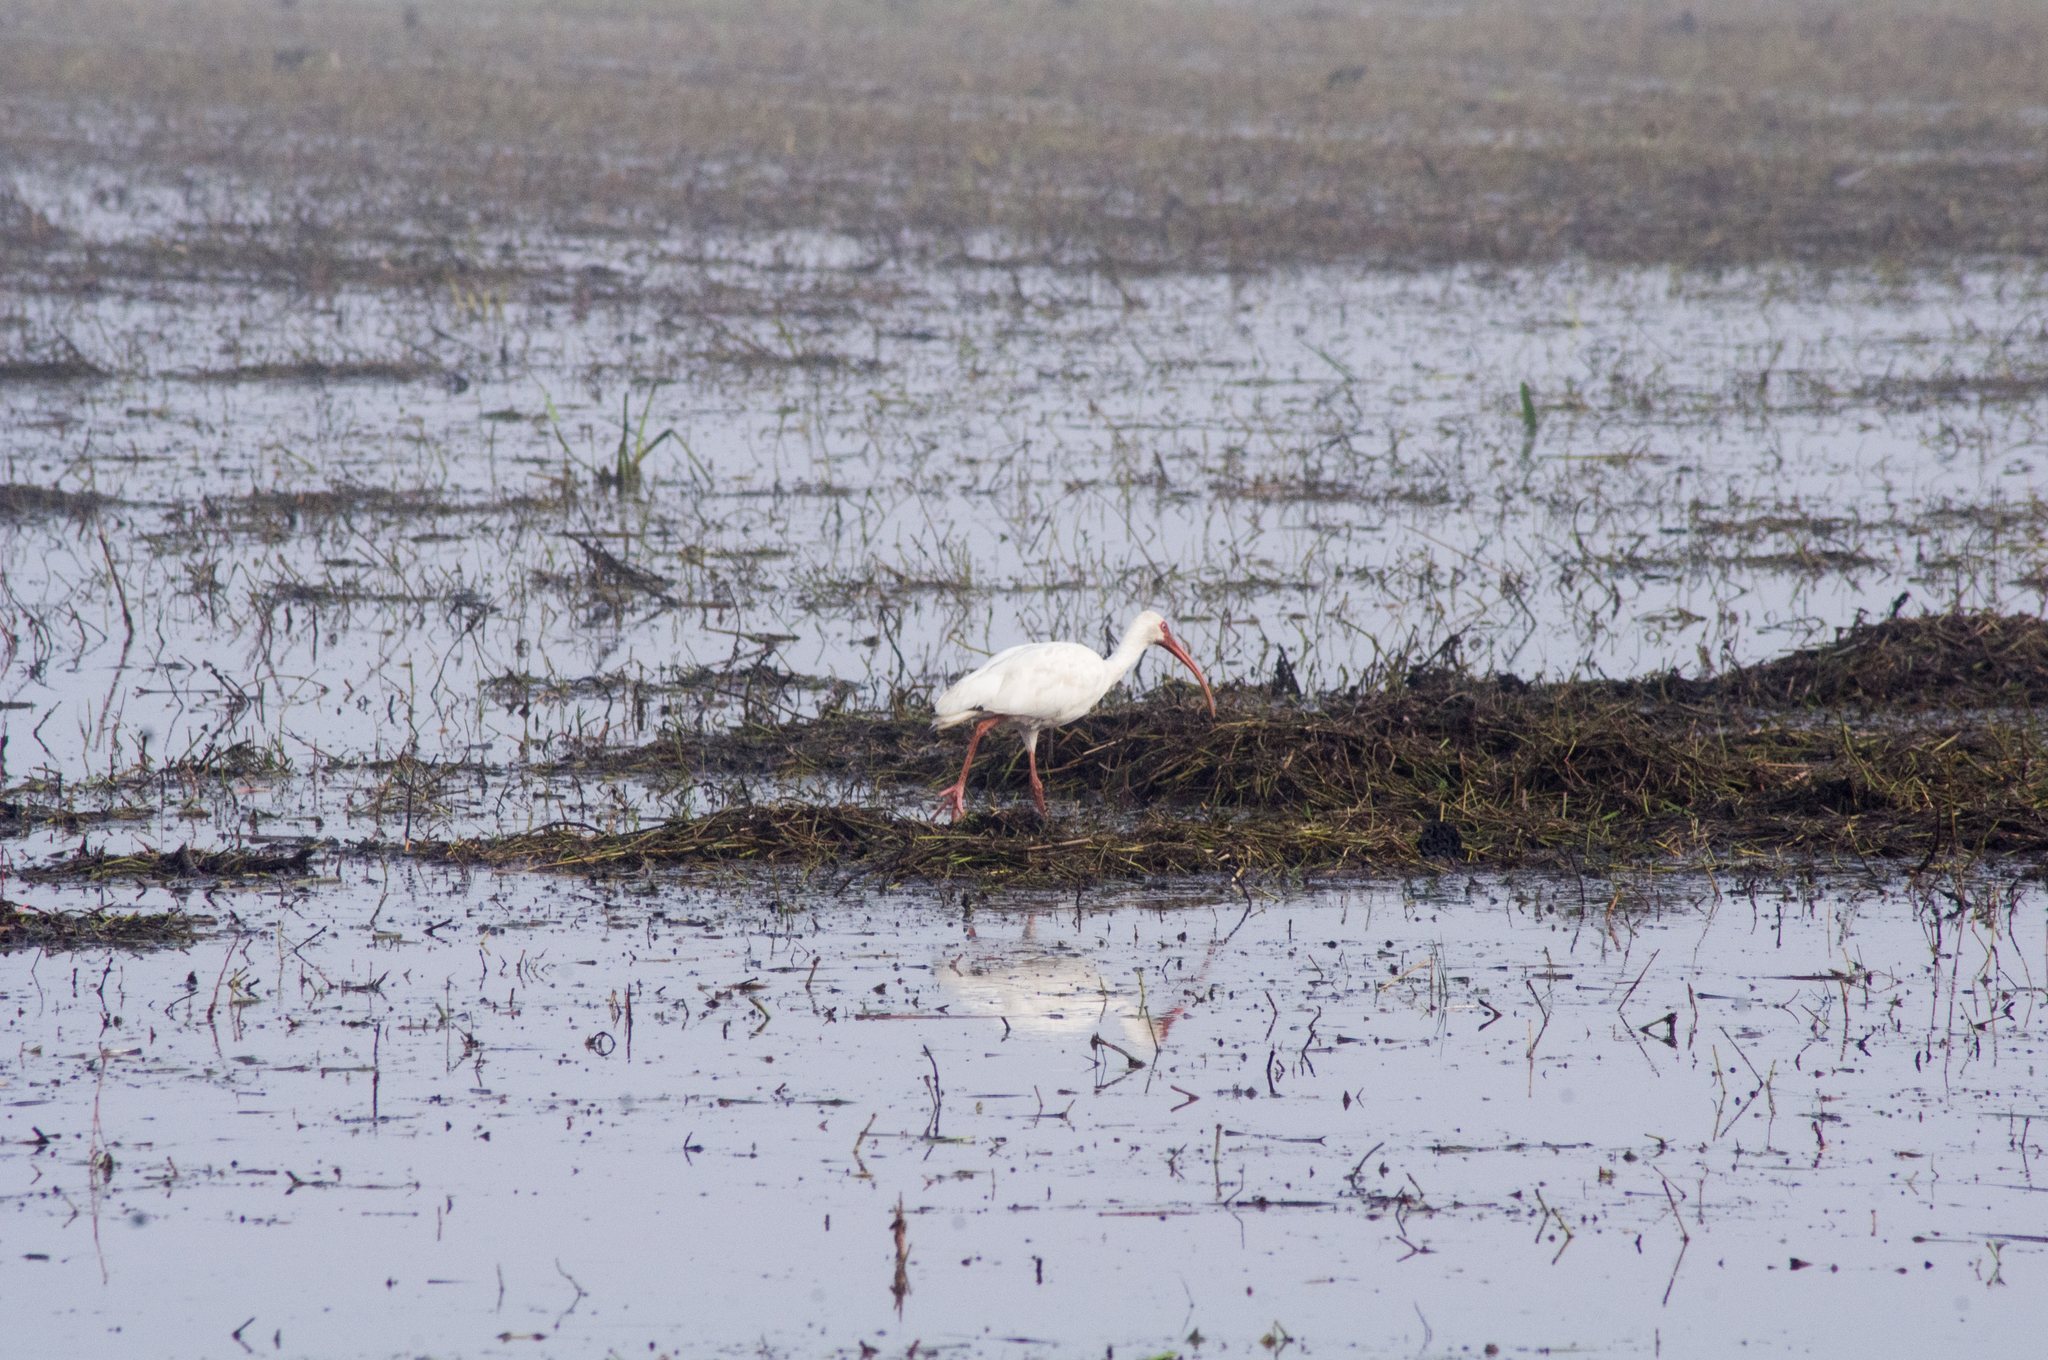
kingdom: Animalia
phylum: Chordata
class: Aves
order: Pelecaniformes
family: Threskiornithidae
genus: Eudocimus
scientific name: Eudocimus albus
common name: White ibis
